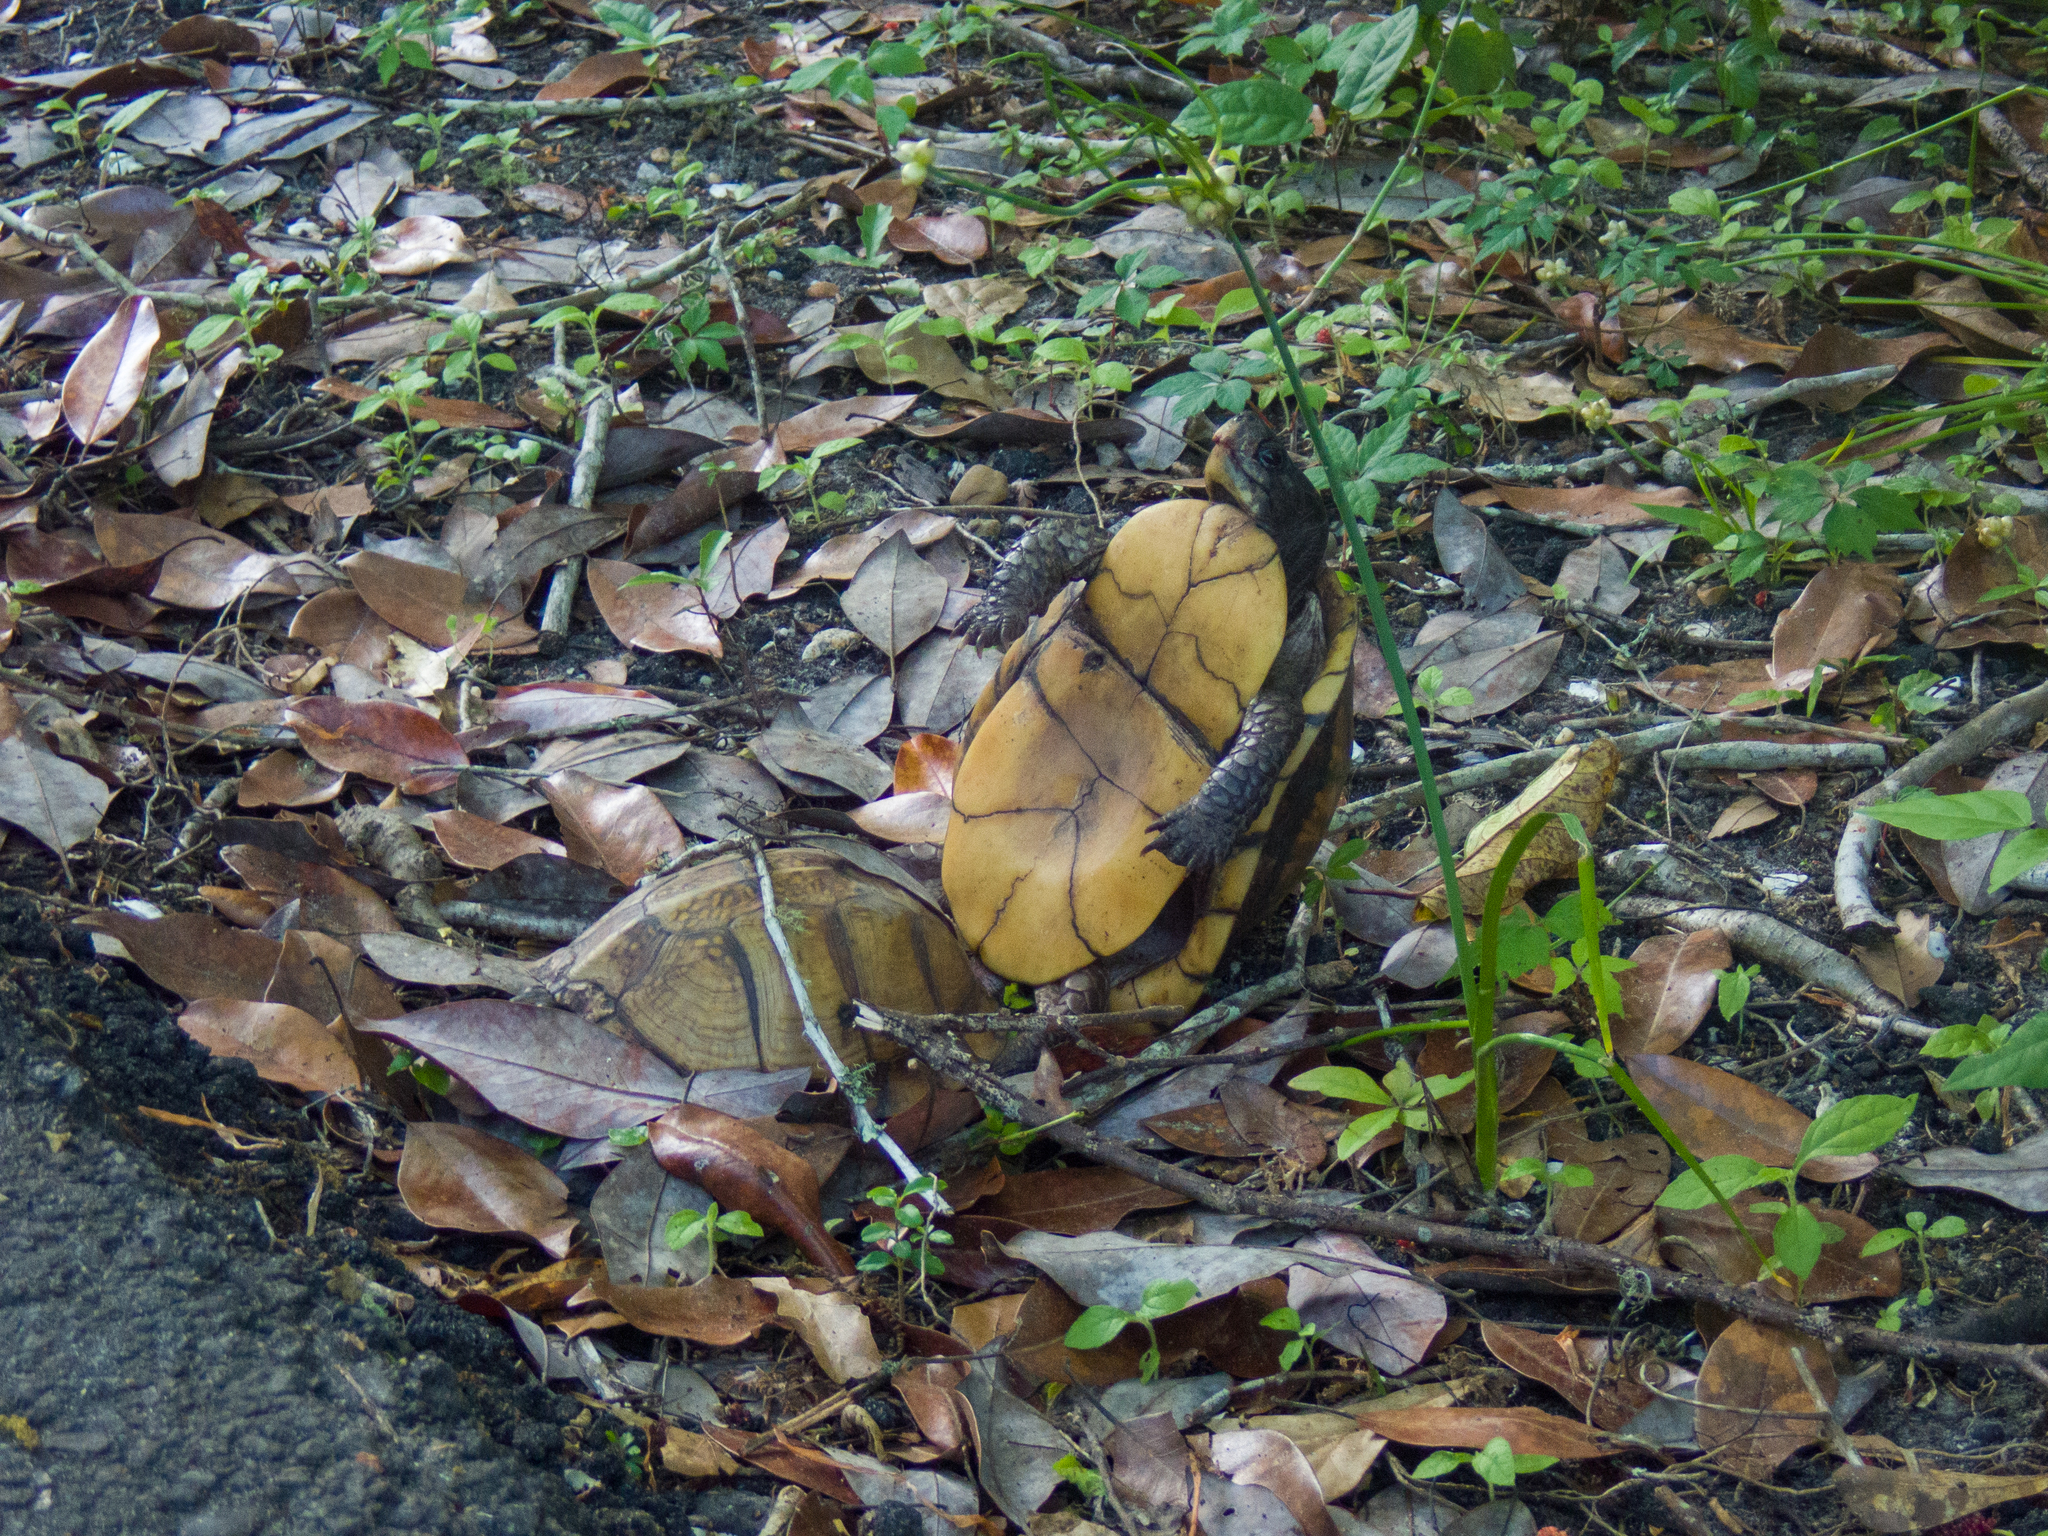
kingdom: Animalia
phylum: Chordata
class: Testudines
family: Emydidae
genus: Terrapene
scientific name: Terrapene carolina
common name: Common box turtle
